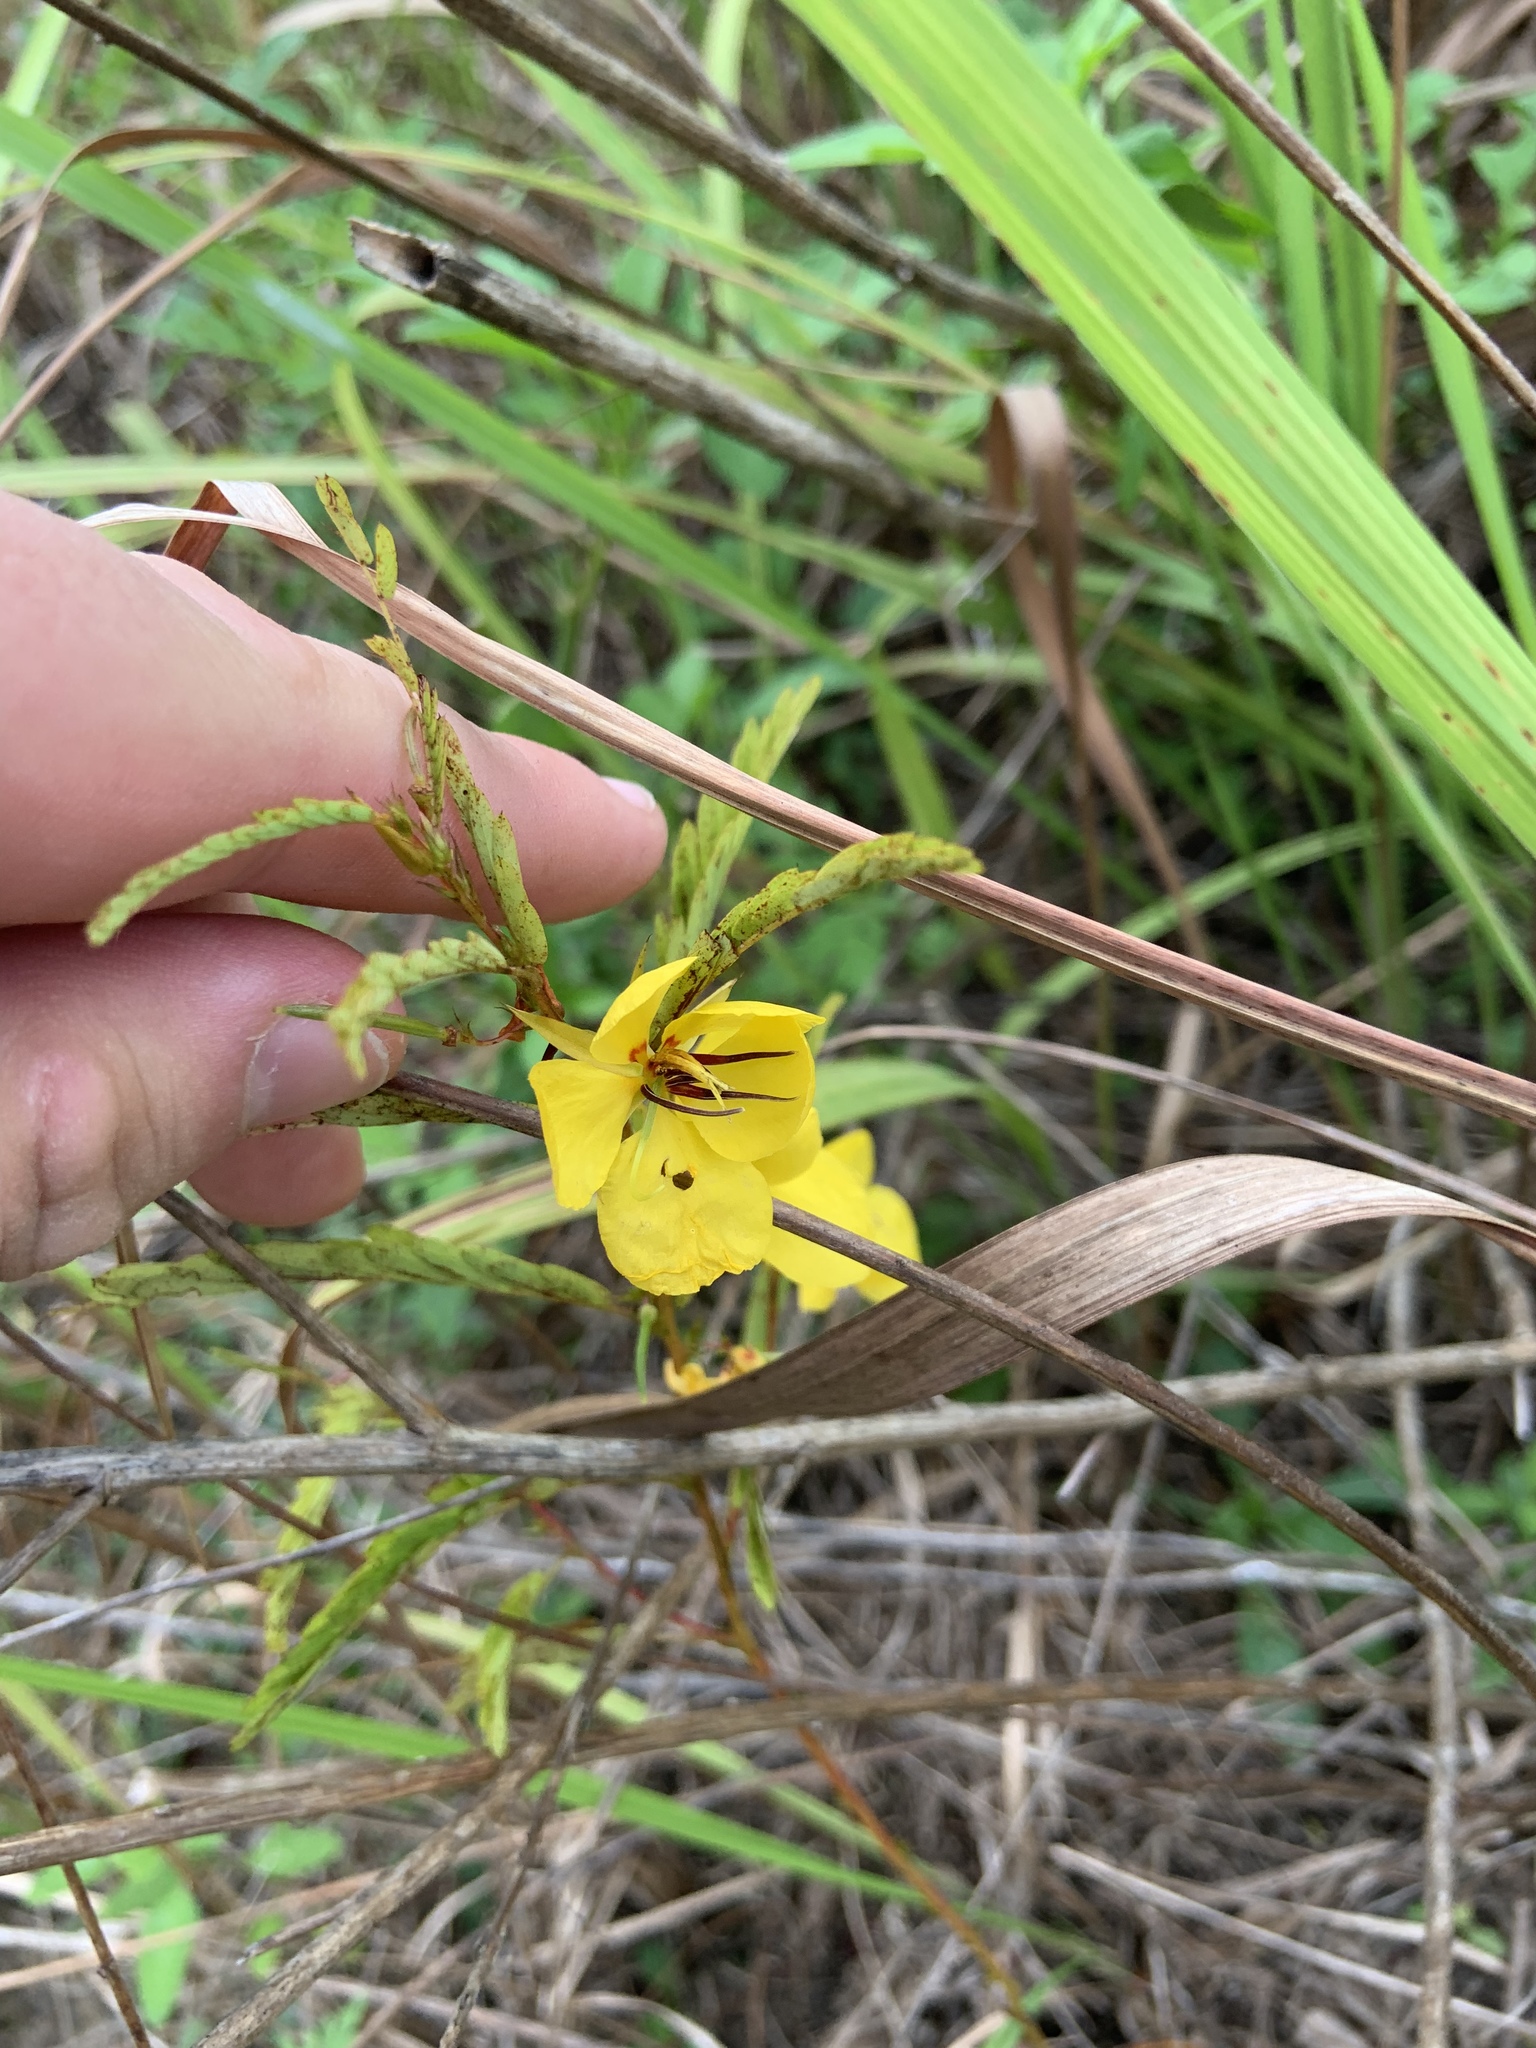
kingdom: Plantae
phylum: Tracheophyta
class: Magnoliopsida
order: Fabales
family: Fabaceae
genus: Chamaecrista
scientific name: Chamaecrista fasciculata
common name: Golden cassia
